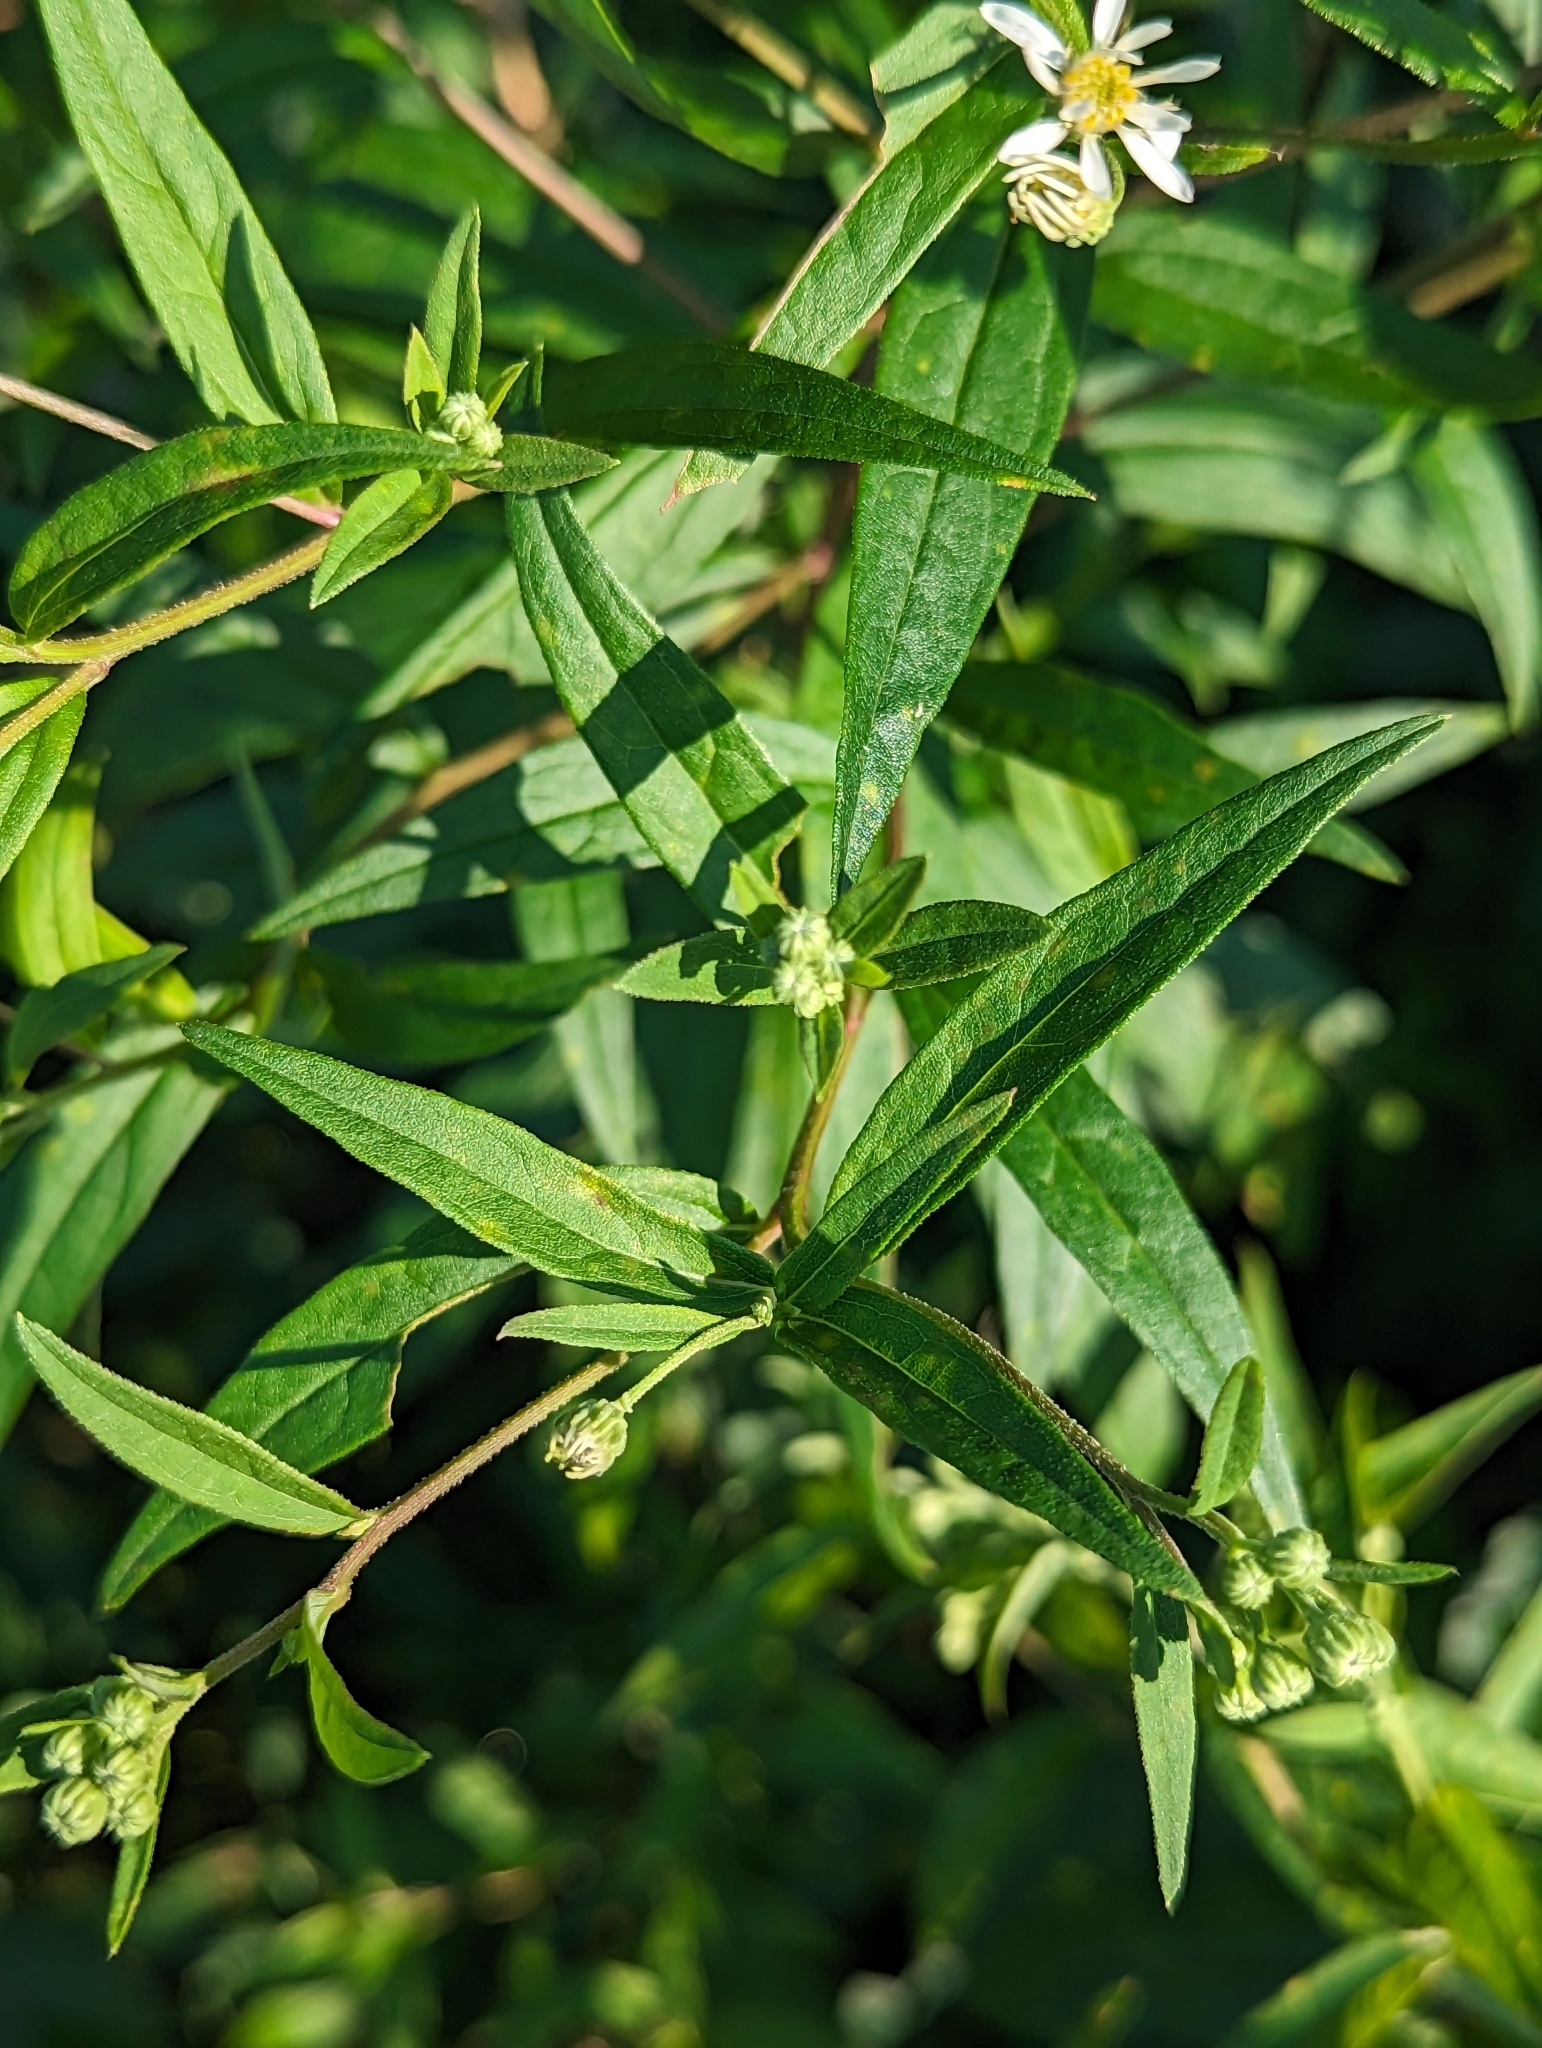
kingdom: Plantae
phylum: Tracheophyta
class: Magnoliopsida
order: Asterales
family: Asteraceae
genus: Doellingeria
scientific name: Doellingeria umbellata
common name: Flat-top white aster
